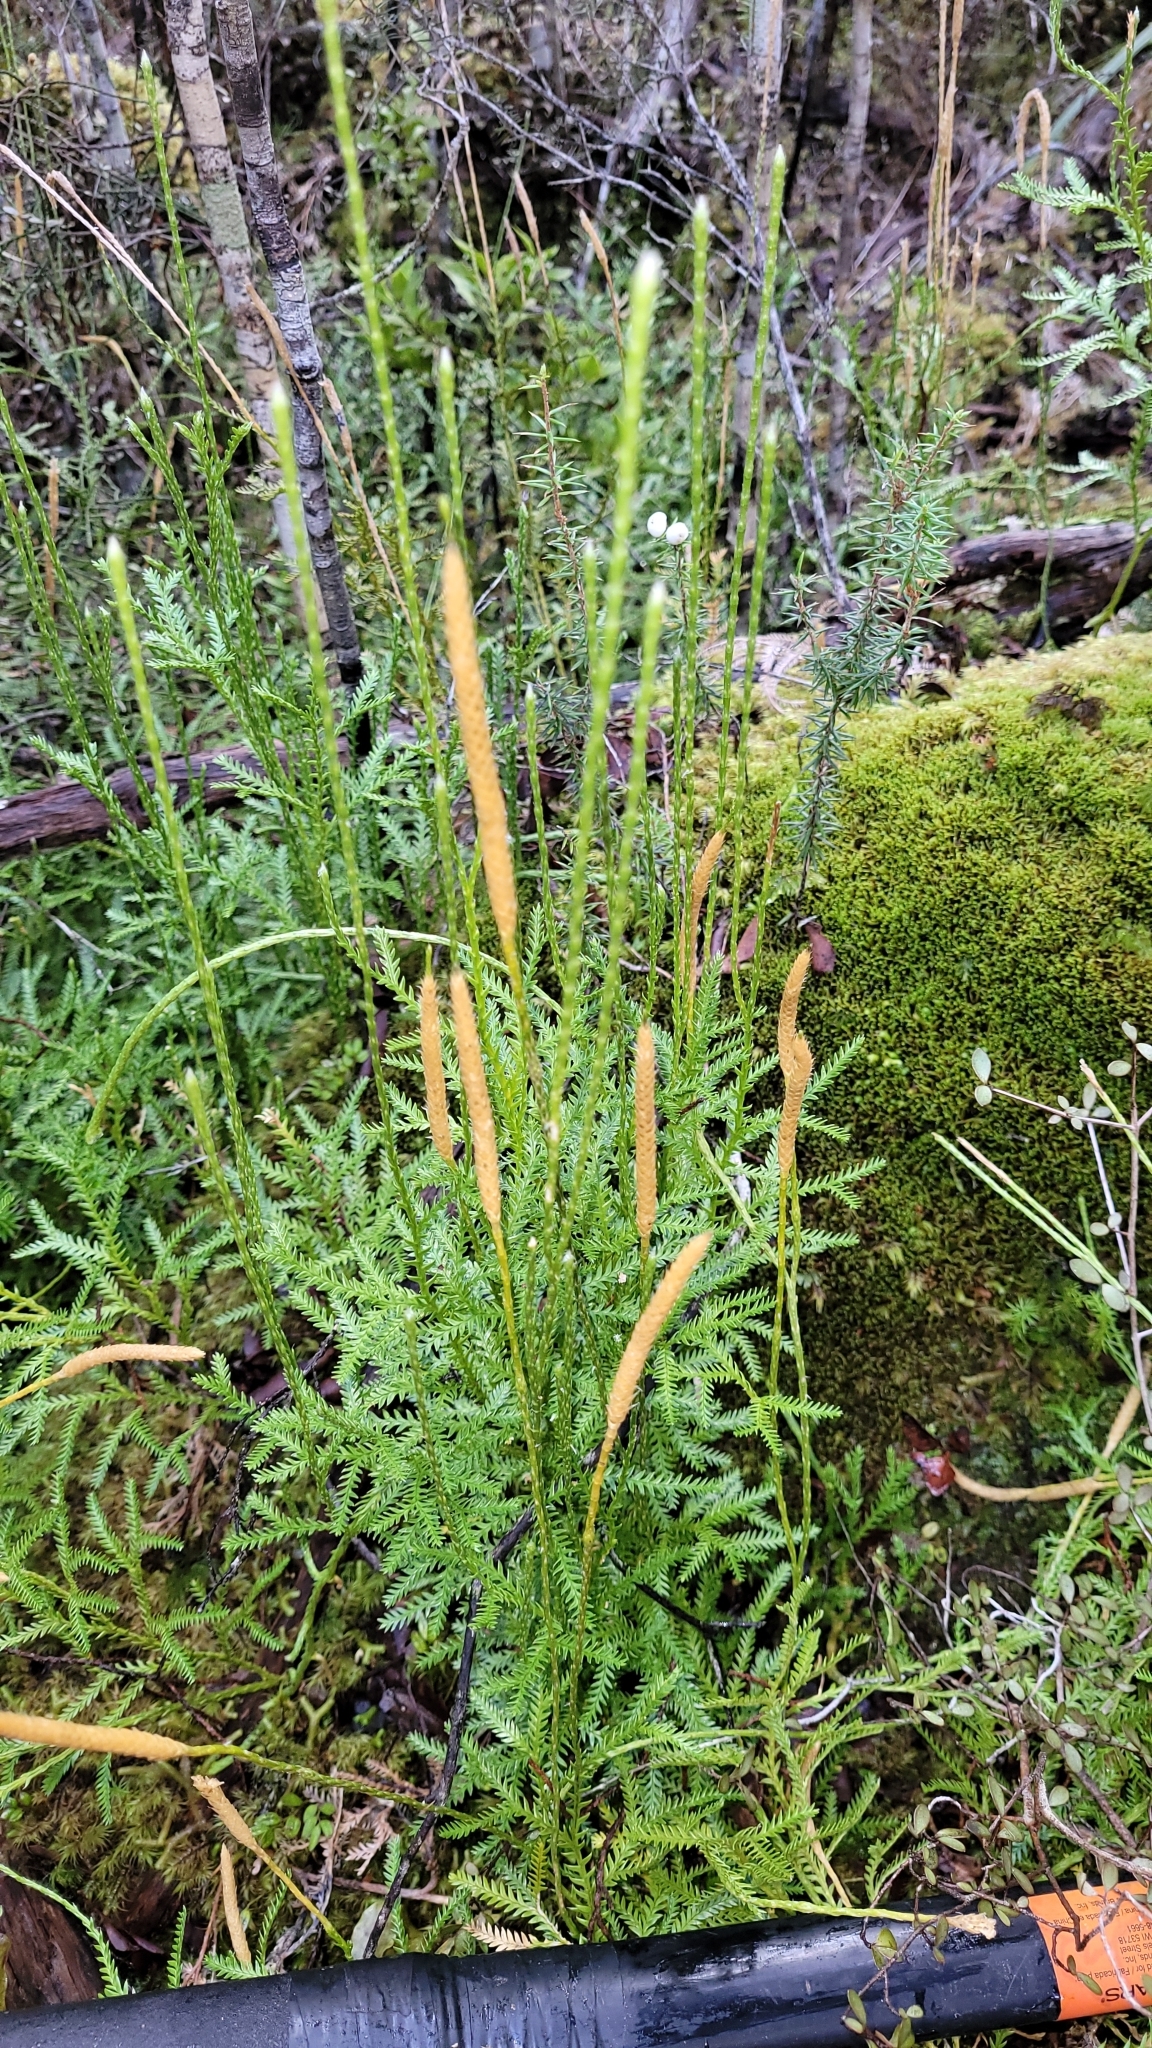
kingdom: Plantae
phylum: Tracheophyta
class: Lycopodiopsida
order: Lycopodiales
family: Lycopodiaceae
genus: Diphasium
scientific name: Diphasium scariosum
